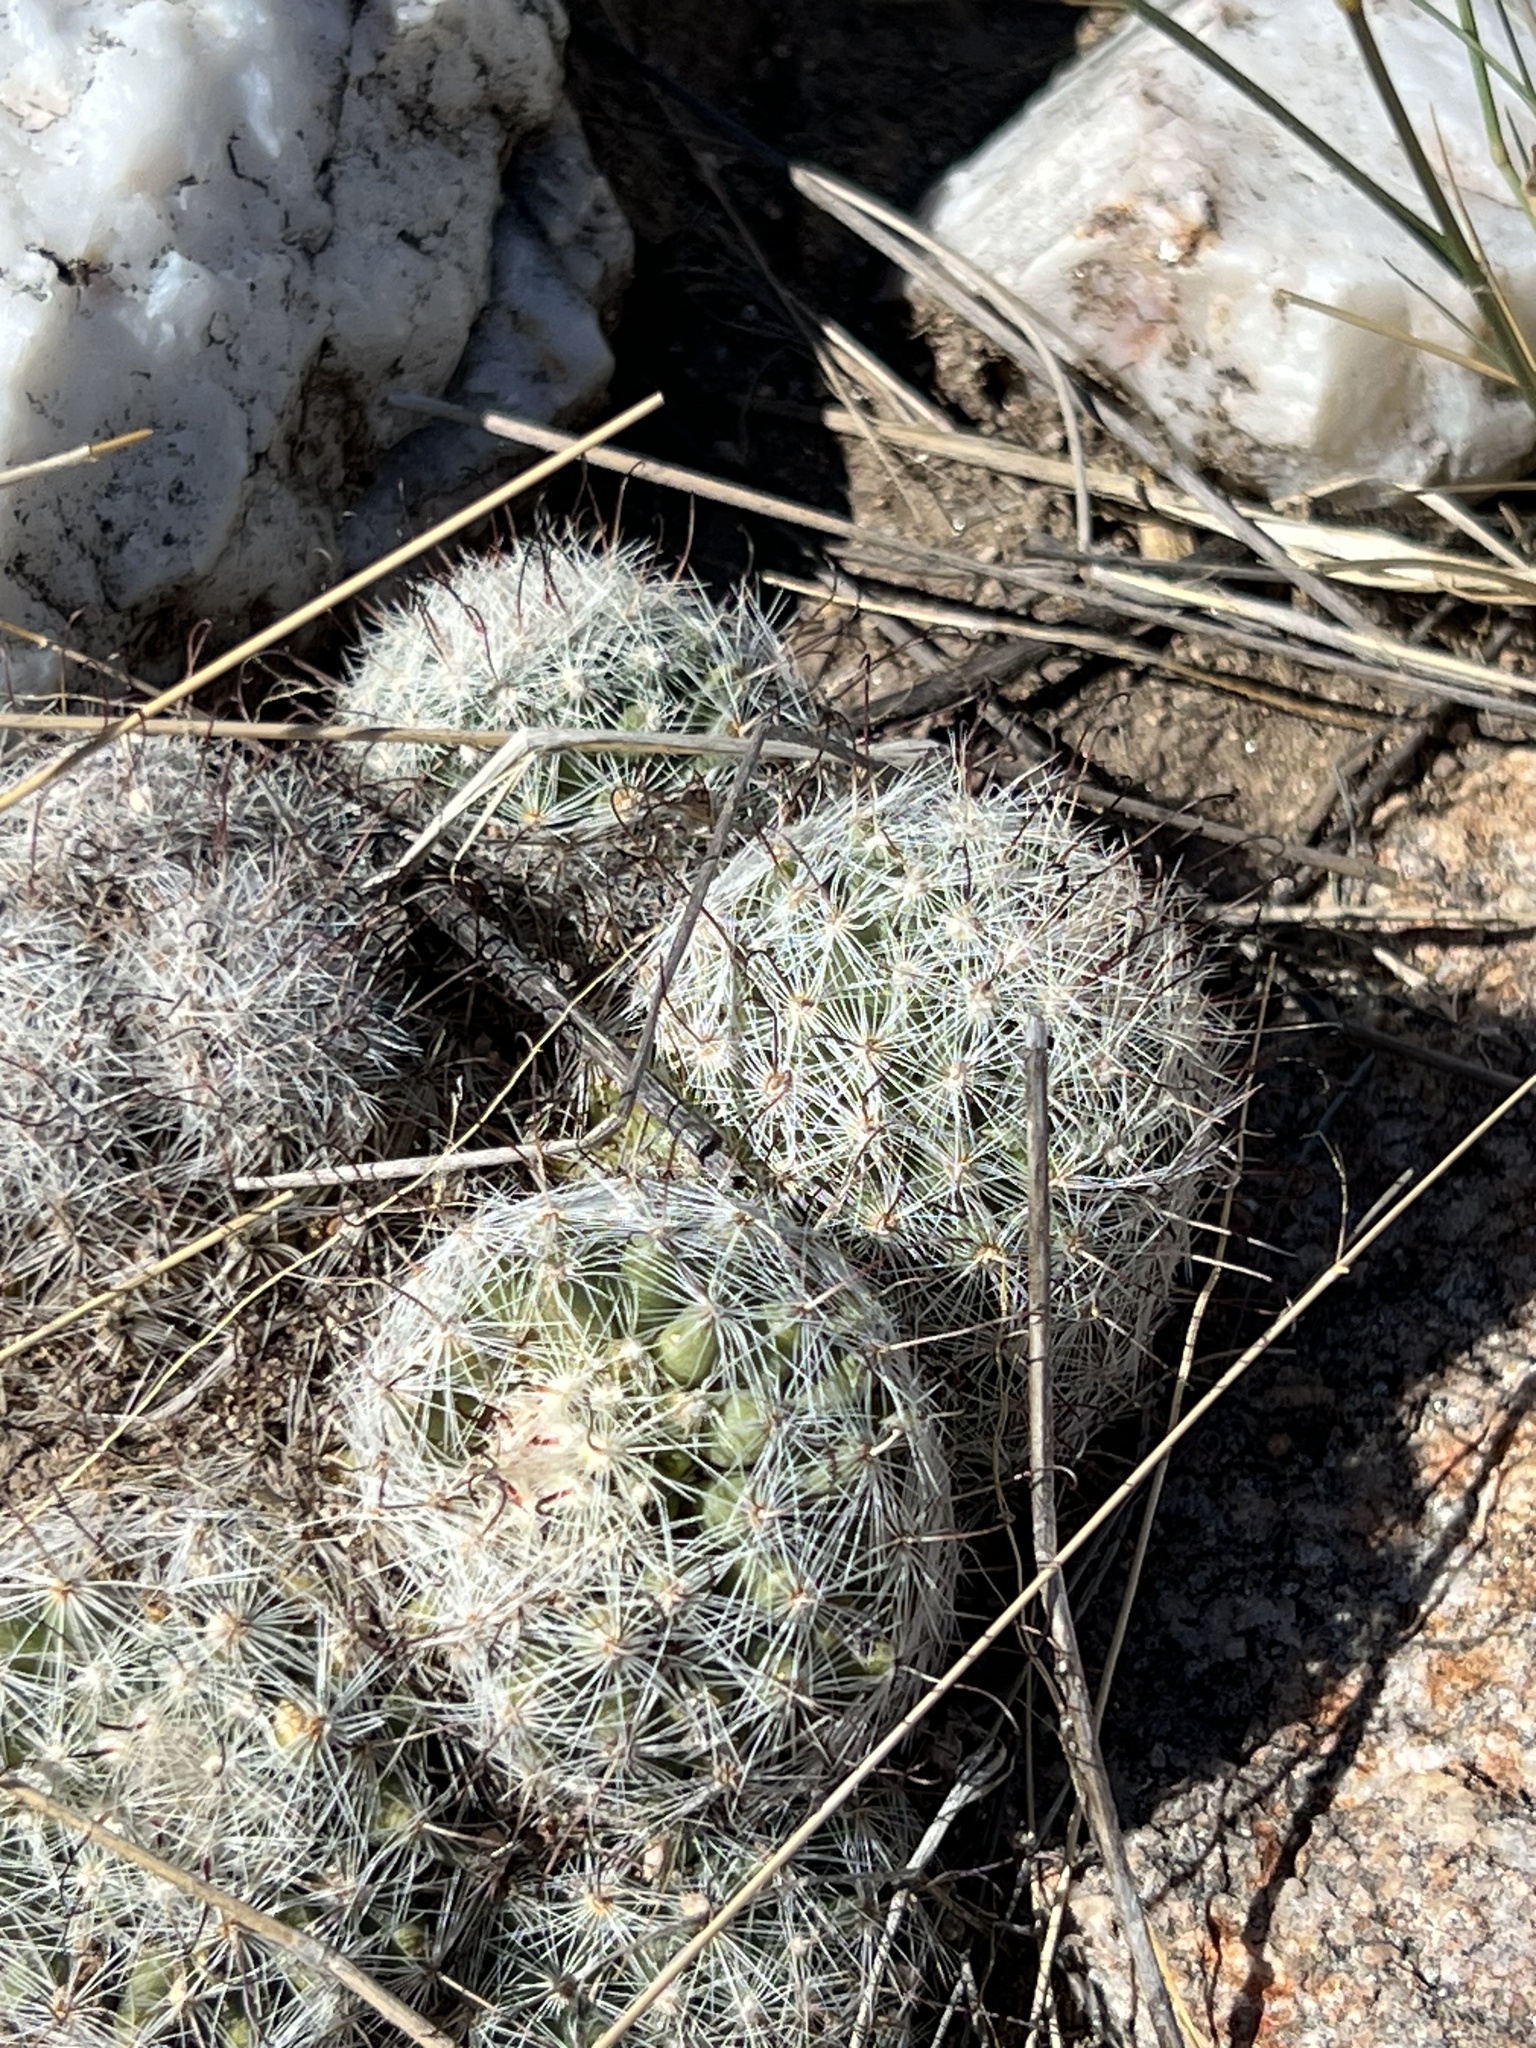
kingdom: Plantae
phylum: Tracheophyta
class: Magnoliopsida
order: Caryophyllales
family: Cactaceae
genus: Cochemiea
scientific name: Cochemiea grahamii
